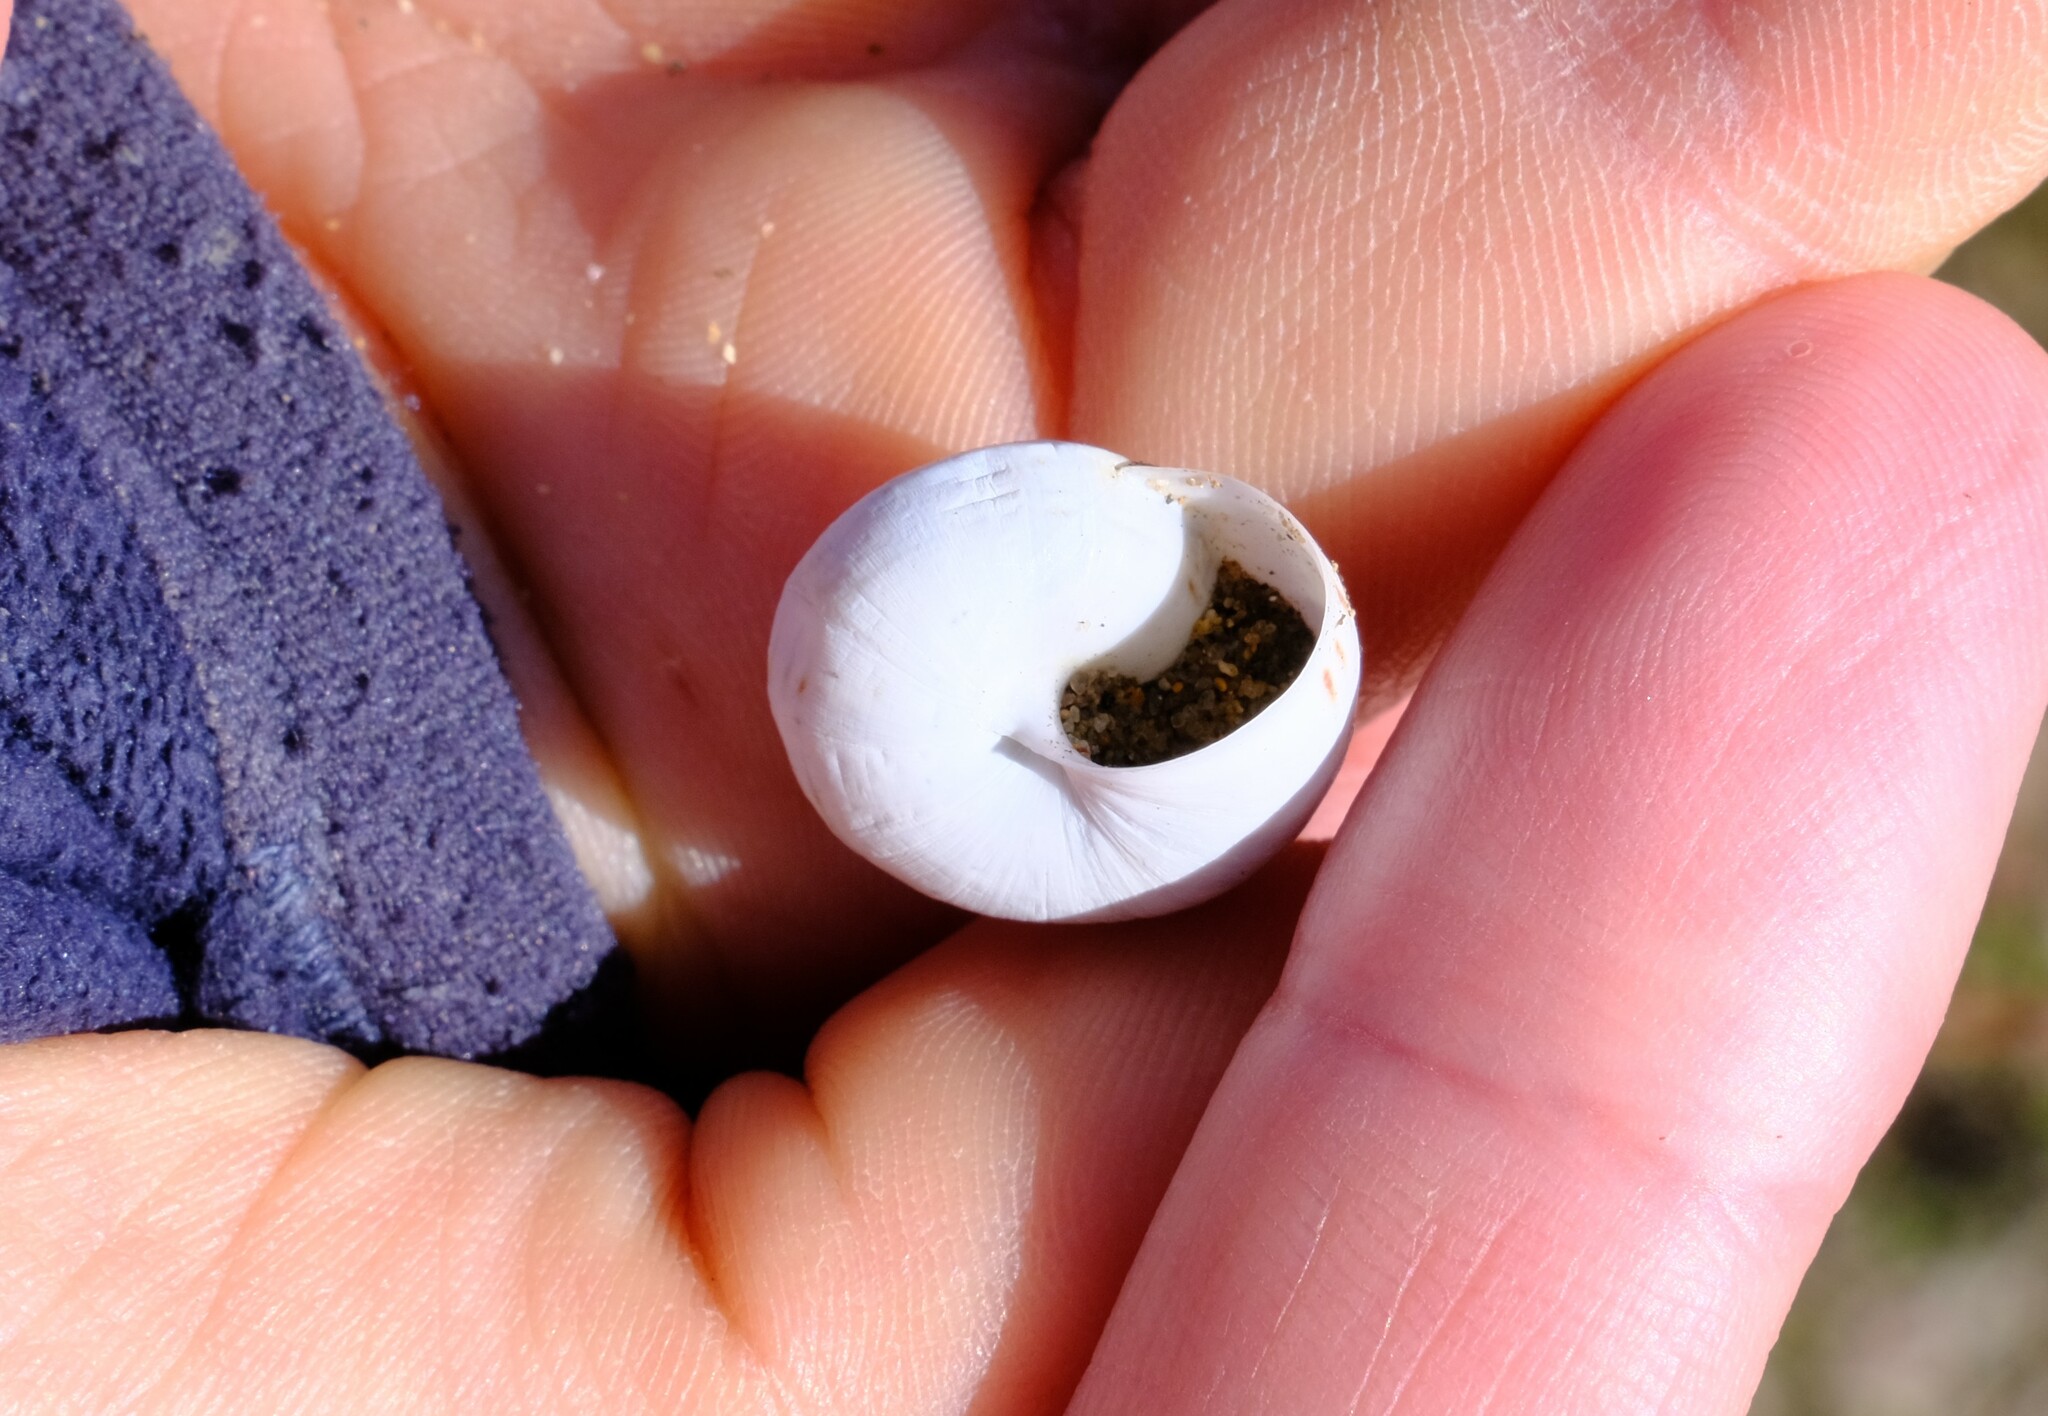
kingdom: Animalia
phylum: Mollusca
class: Gastropoda
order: Stylommatophora
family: Helicidae
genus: Theba
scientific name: Theba pisana
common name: White snail
